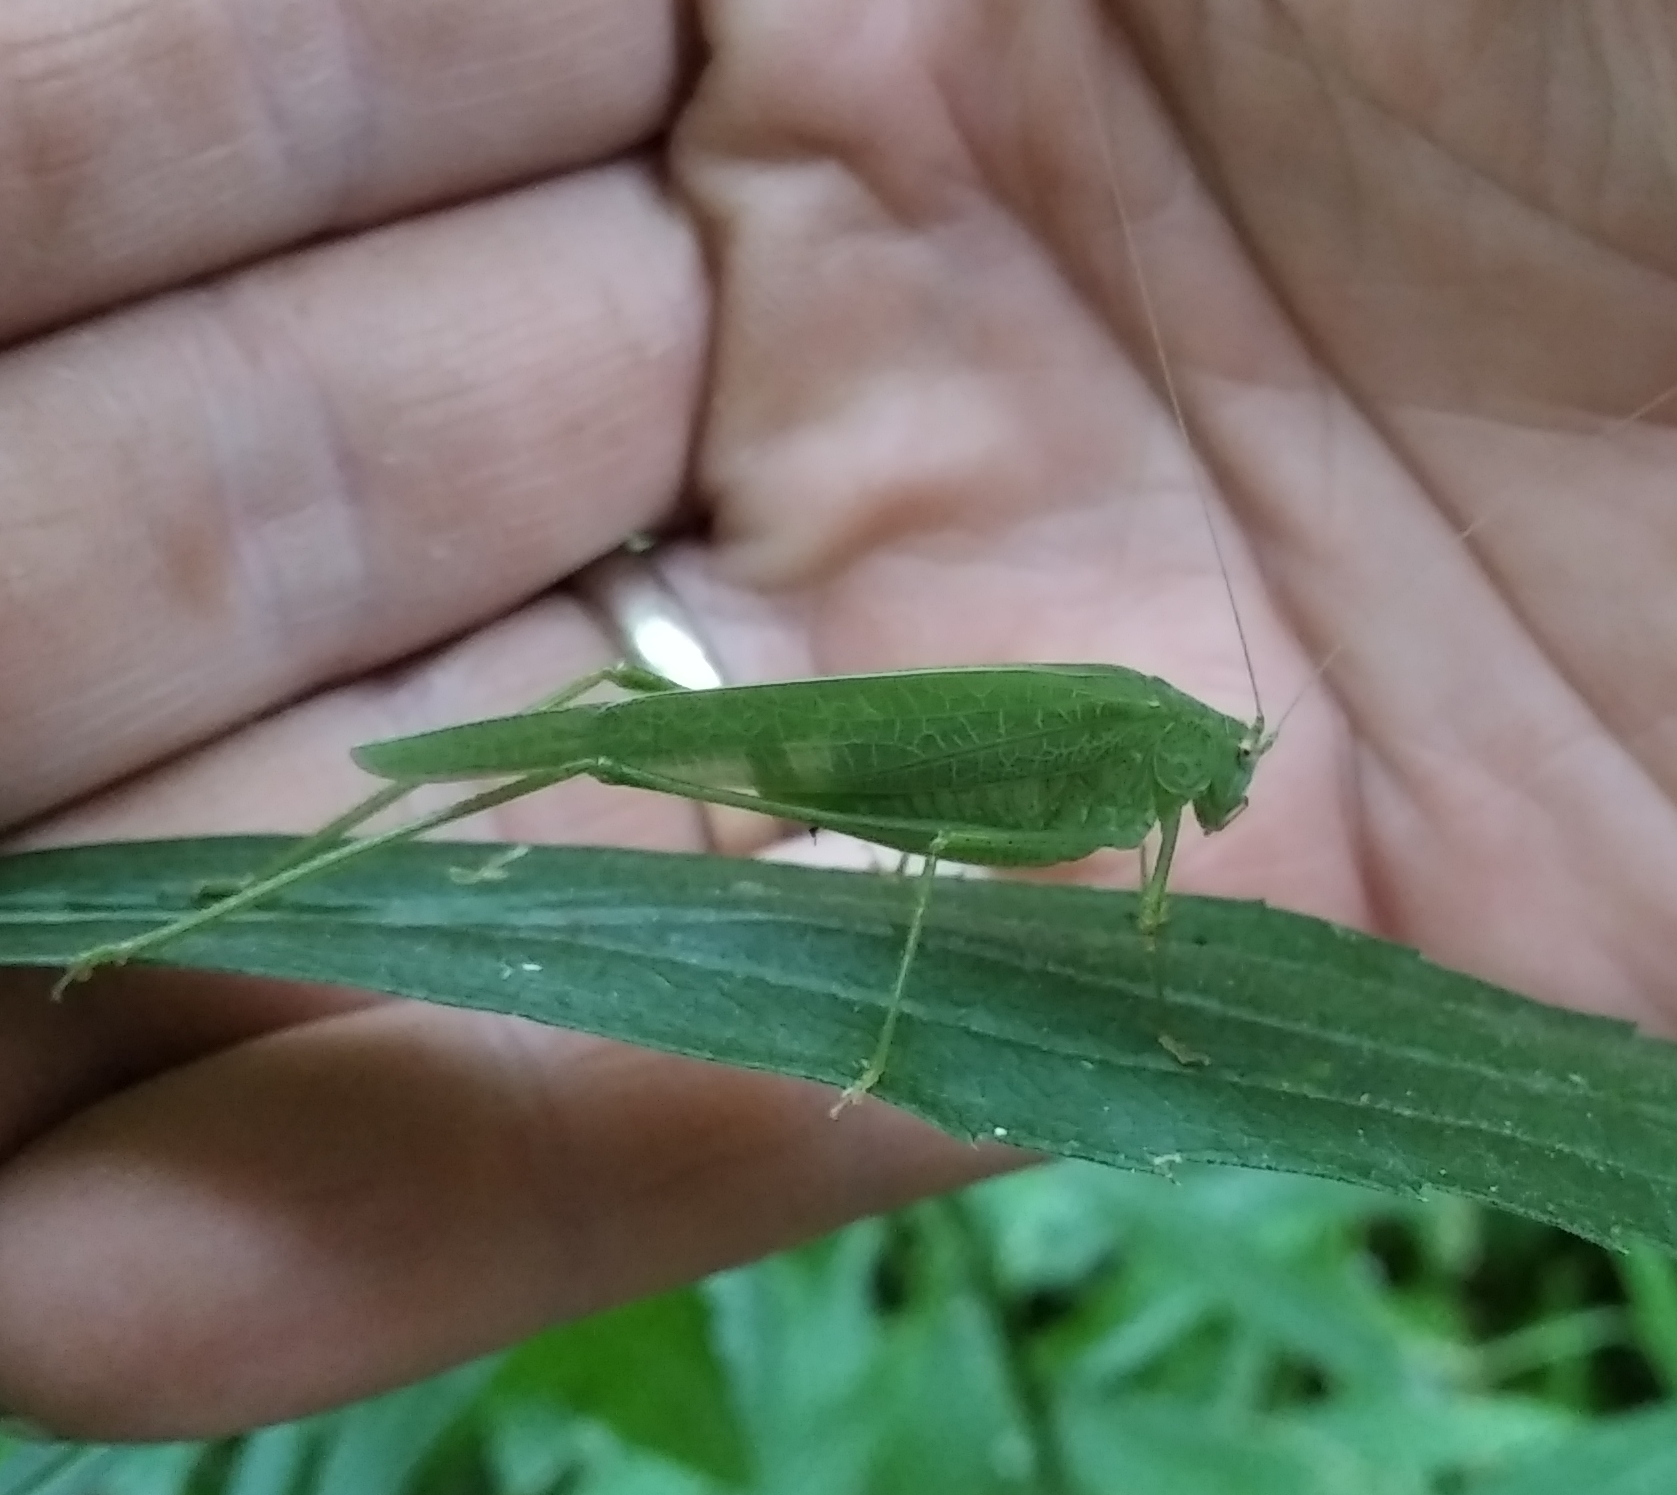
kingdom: Animalia
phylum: Arthropoda
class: Insecta
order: Orthoptera
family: Tettigoniidae
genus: Phaneroptera
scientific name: Phaneroptera nana
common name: Southern sickle bush-cricket
